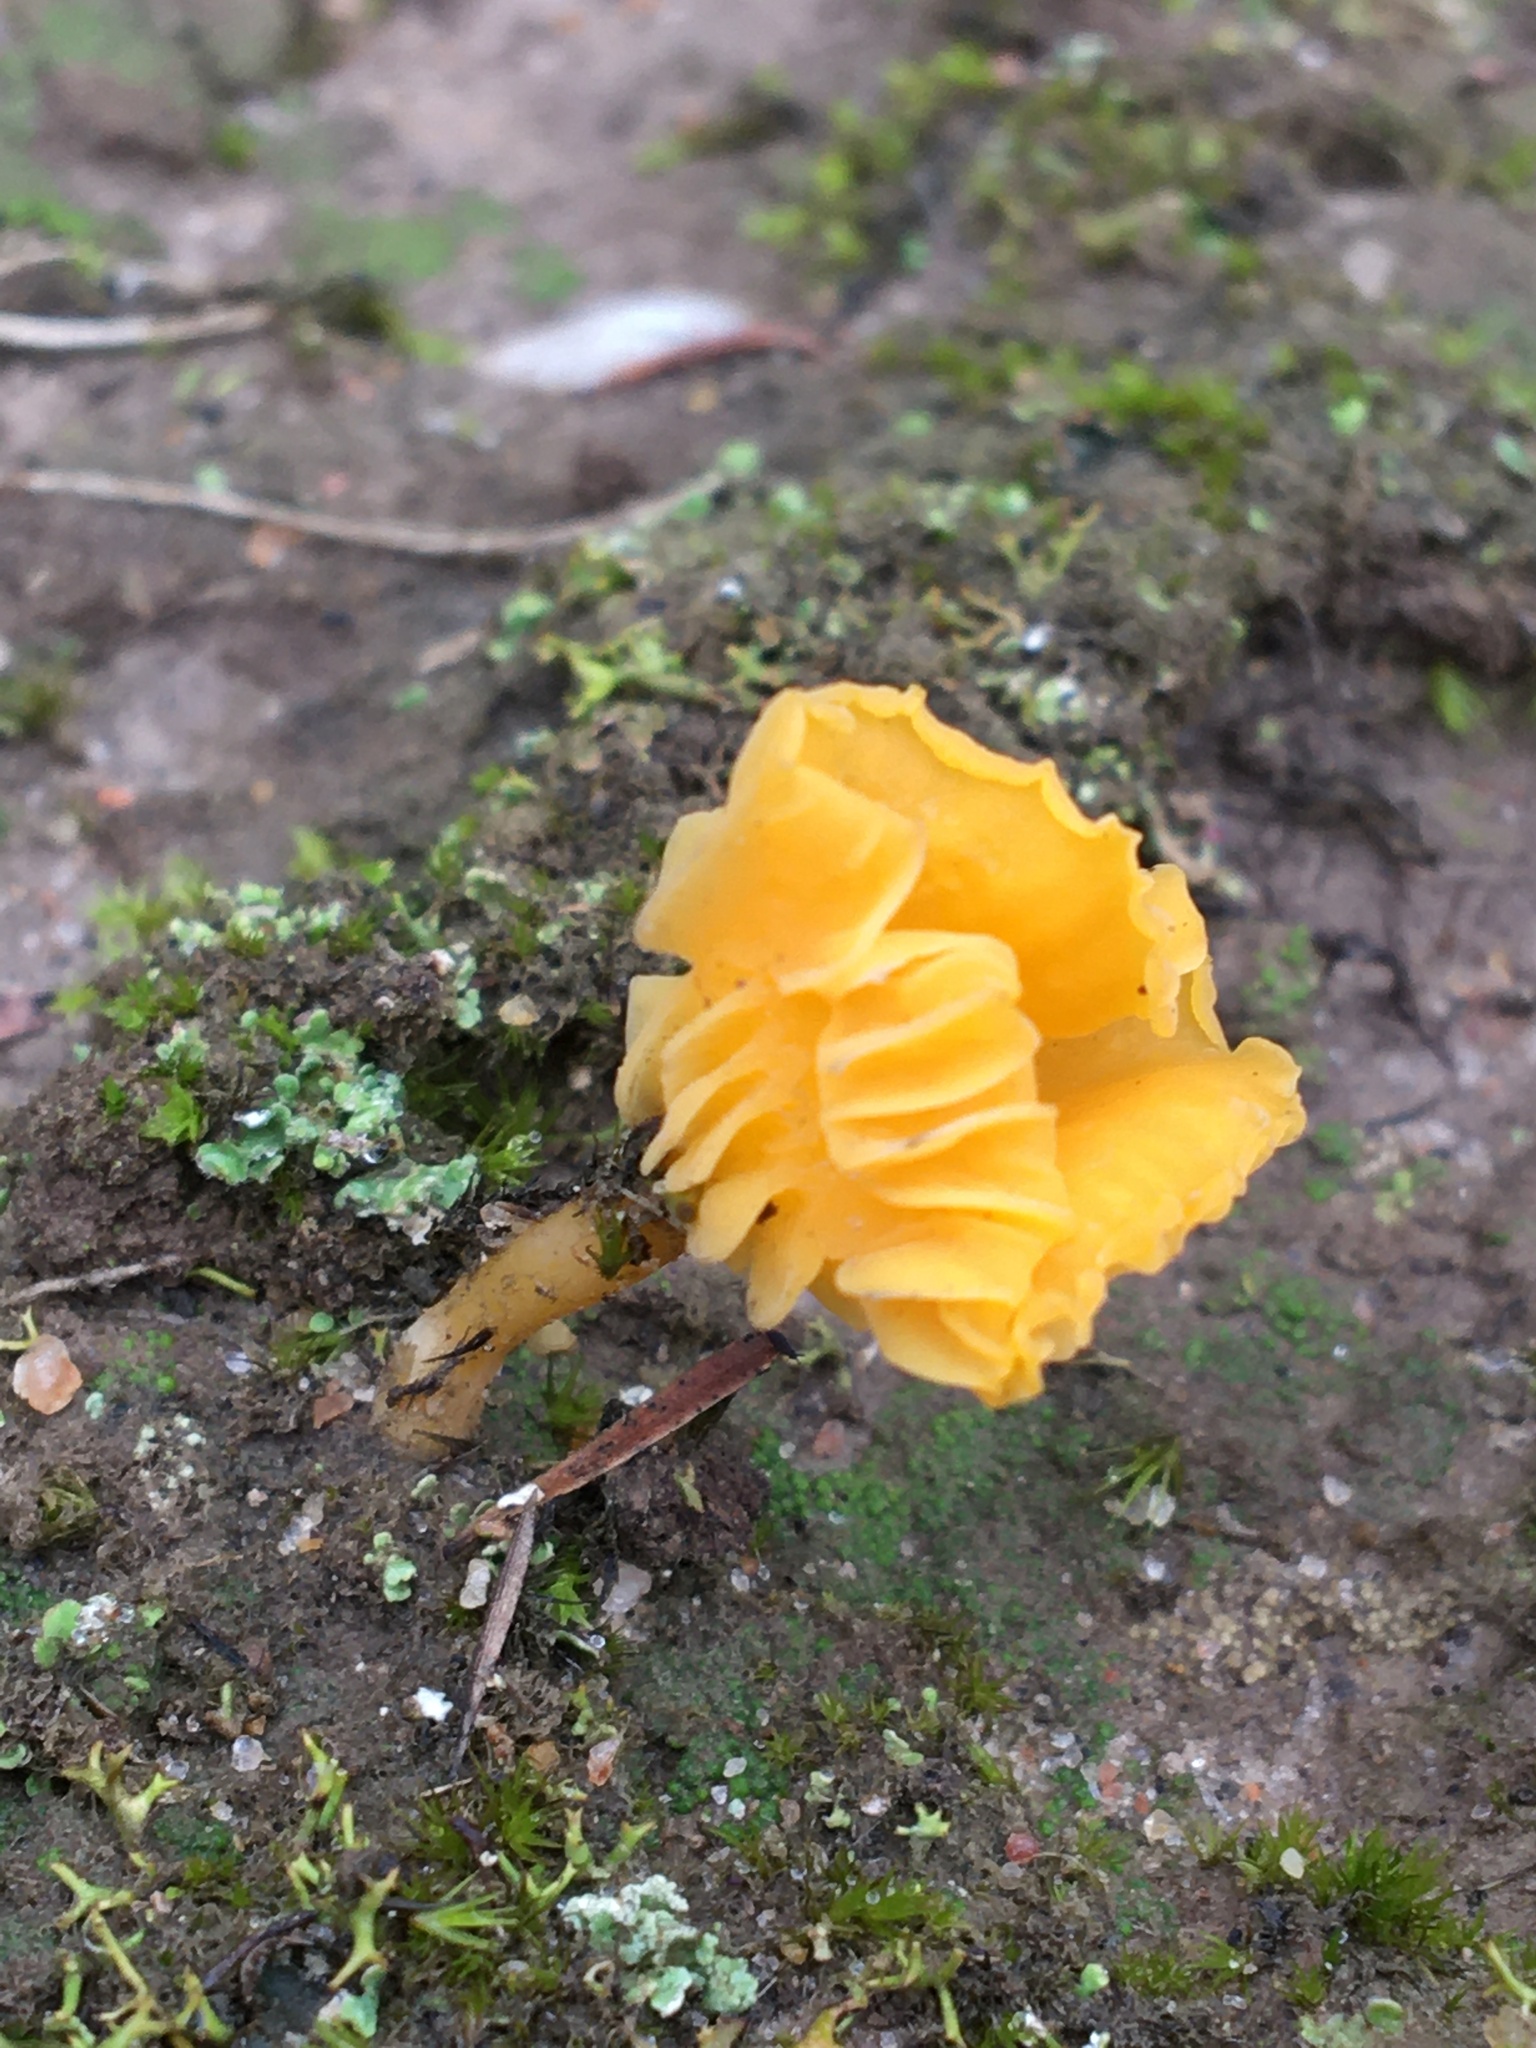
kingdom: Fungi
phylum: Basidiomycota
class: Agaricomycetes
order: Agaricales
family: Hygrophoraceae
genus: Lichenomphalia
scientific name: Lichenomphalia chromacea
